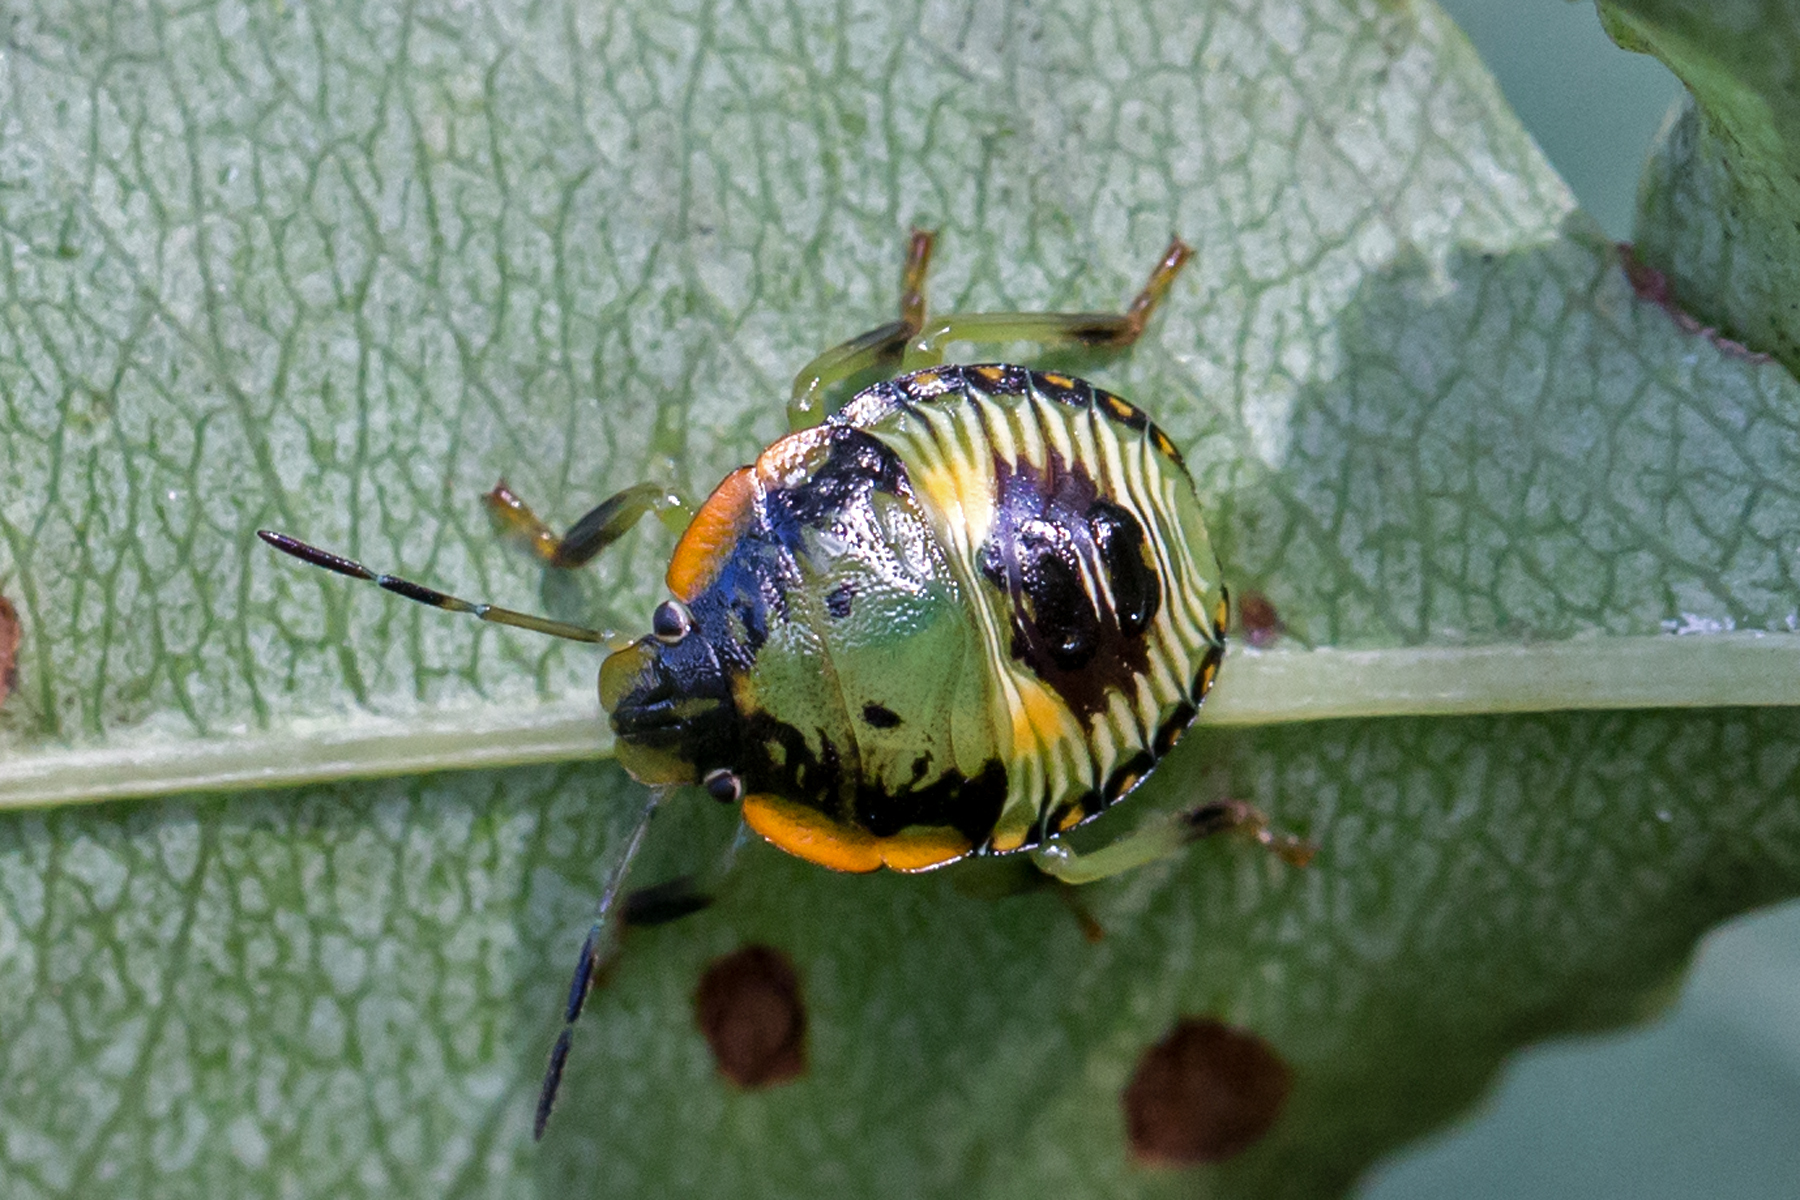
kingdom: Animalia
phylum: Arthropoda
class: Insecta
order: Hemiptera
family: Pentatomidae
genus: Chinavia
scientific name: Chinavia hilaris
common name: Green stink bug
